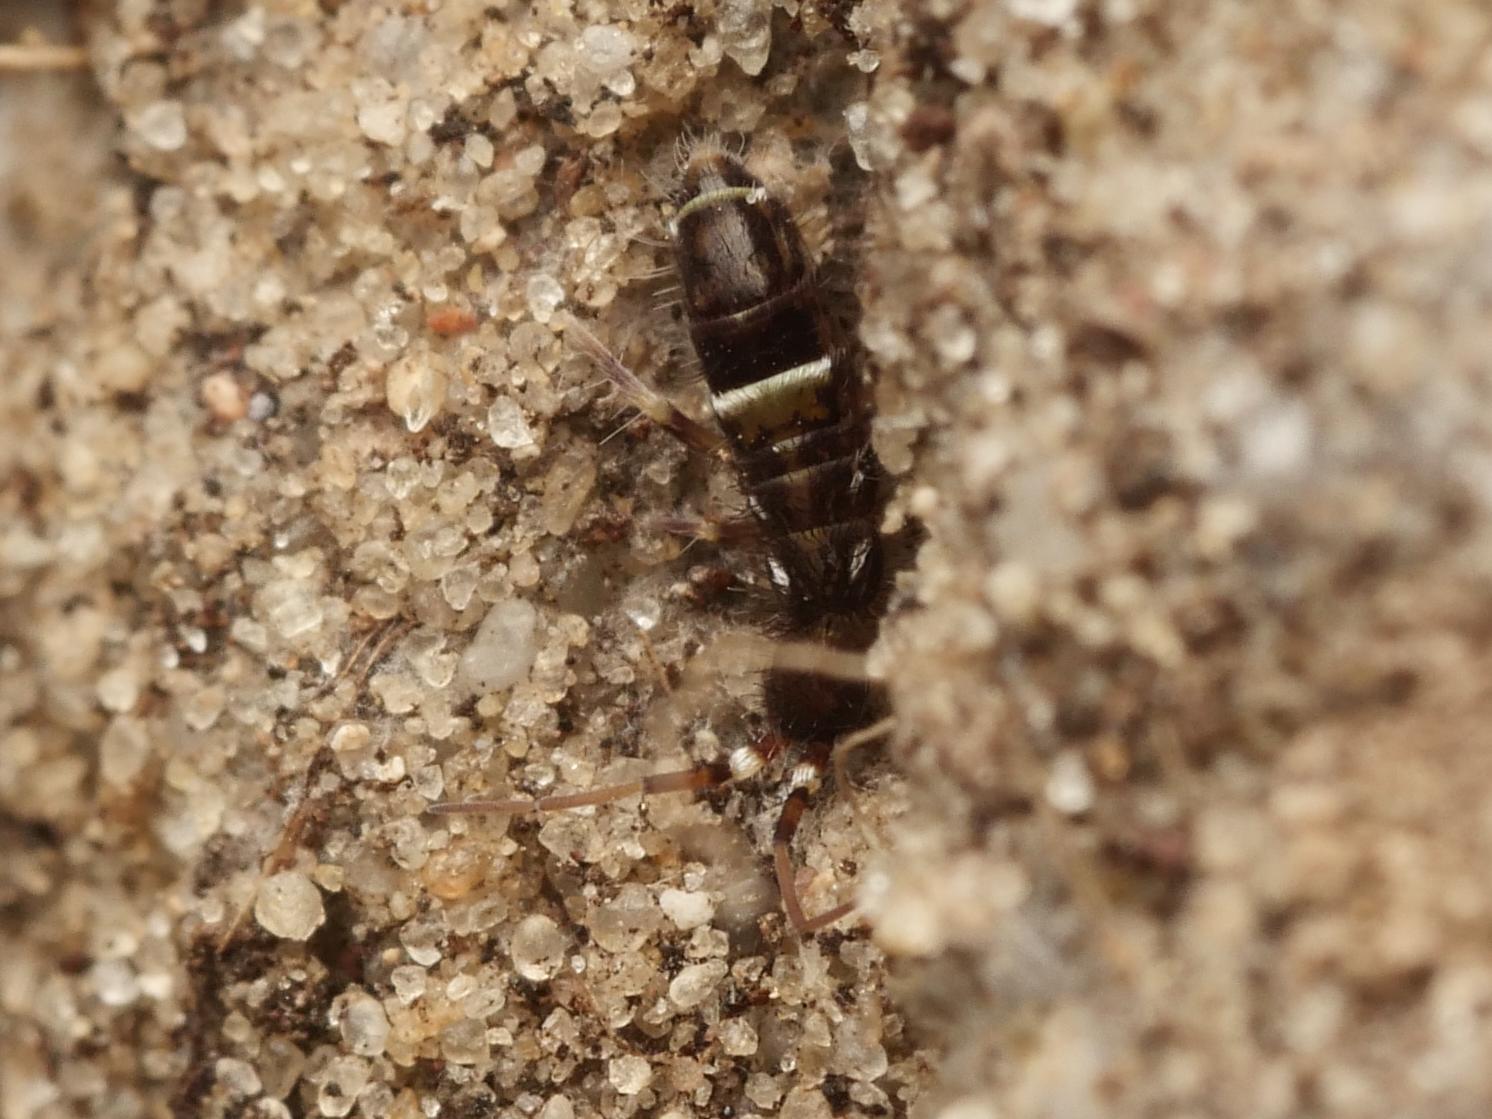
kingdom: Animalia
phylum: Arthropoda
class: Collembola
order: Entomobryomorpha
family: Orchesellidae
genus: Orchesella
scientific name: Orchesella cincta
